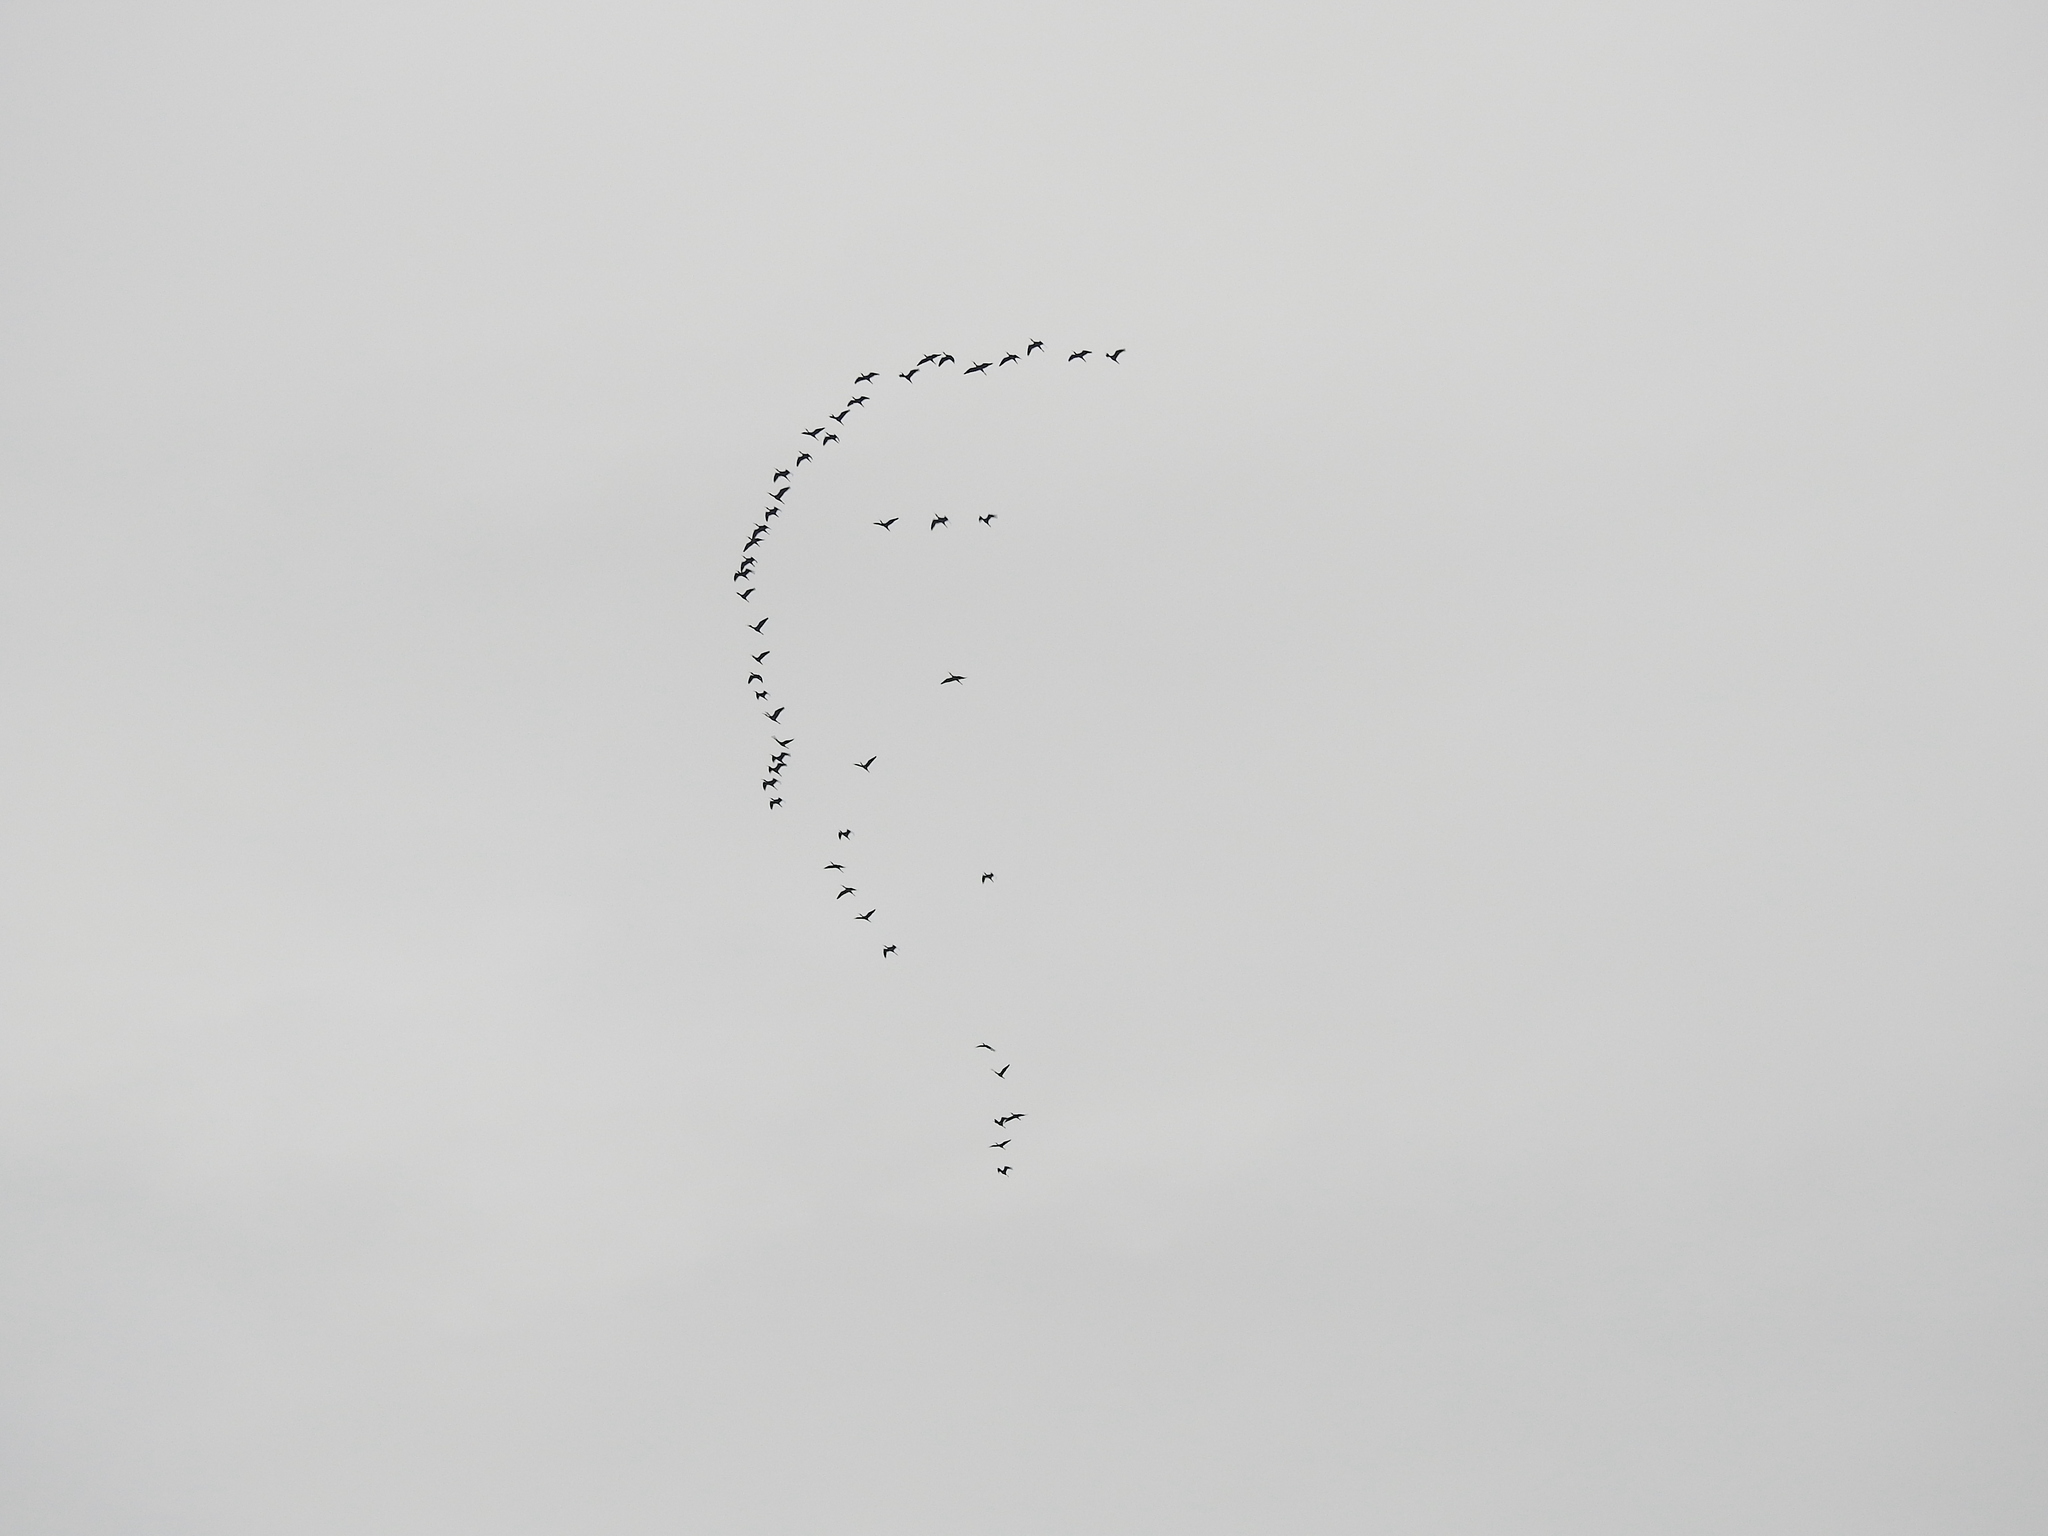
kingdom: Animalia
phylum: Chordata
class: Aves
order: Pelecaniformes
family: Threskiornithidae
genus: Plegadis
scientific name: Plegadis falcinellus
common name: Glossy ibis
